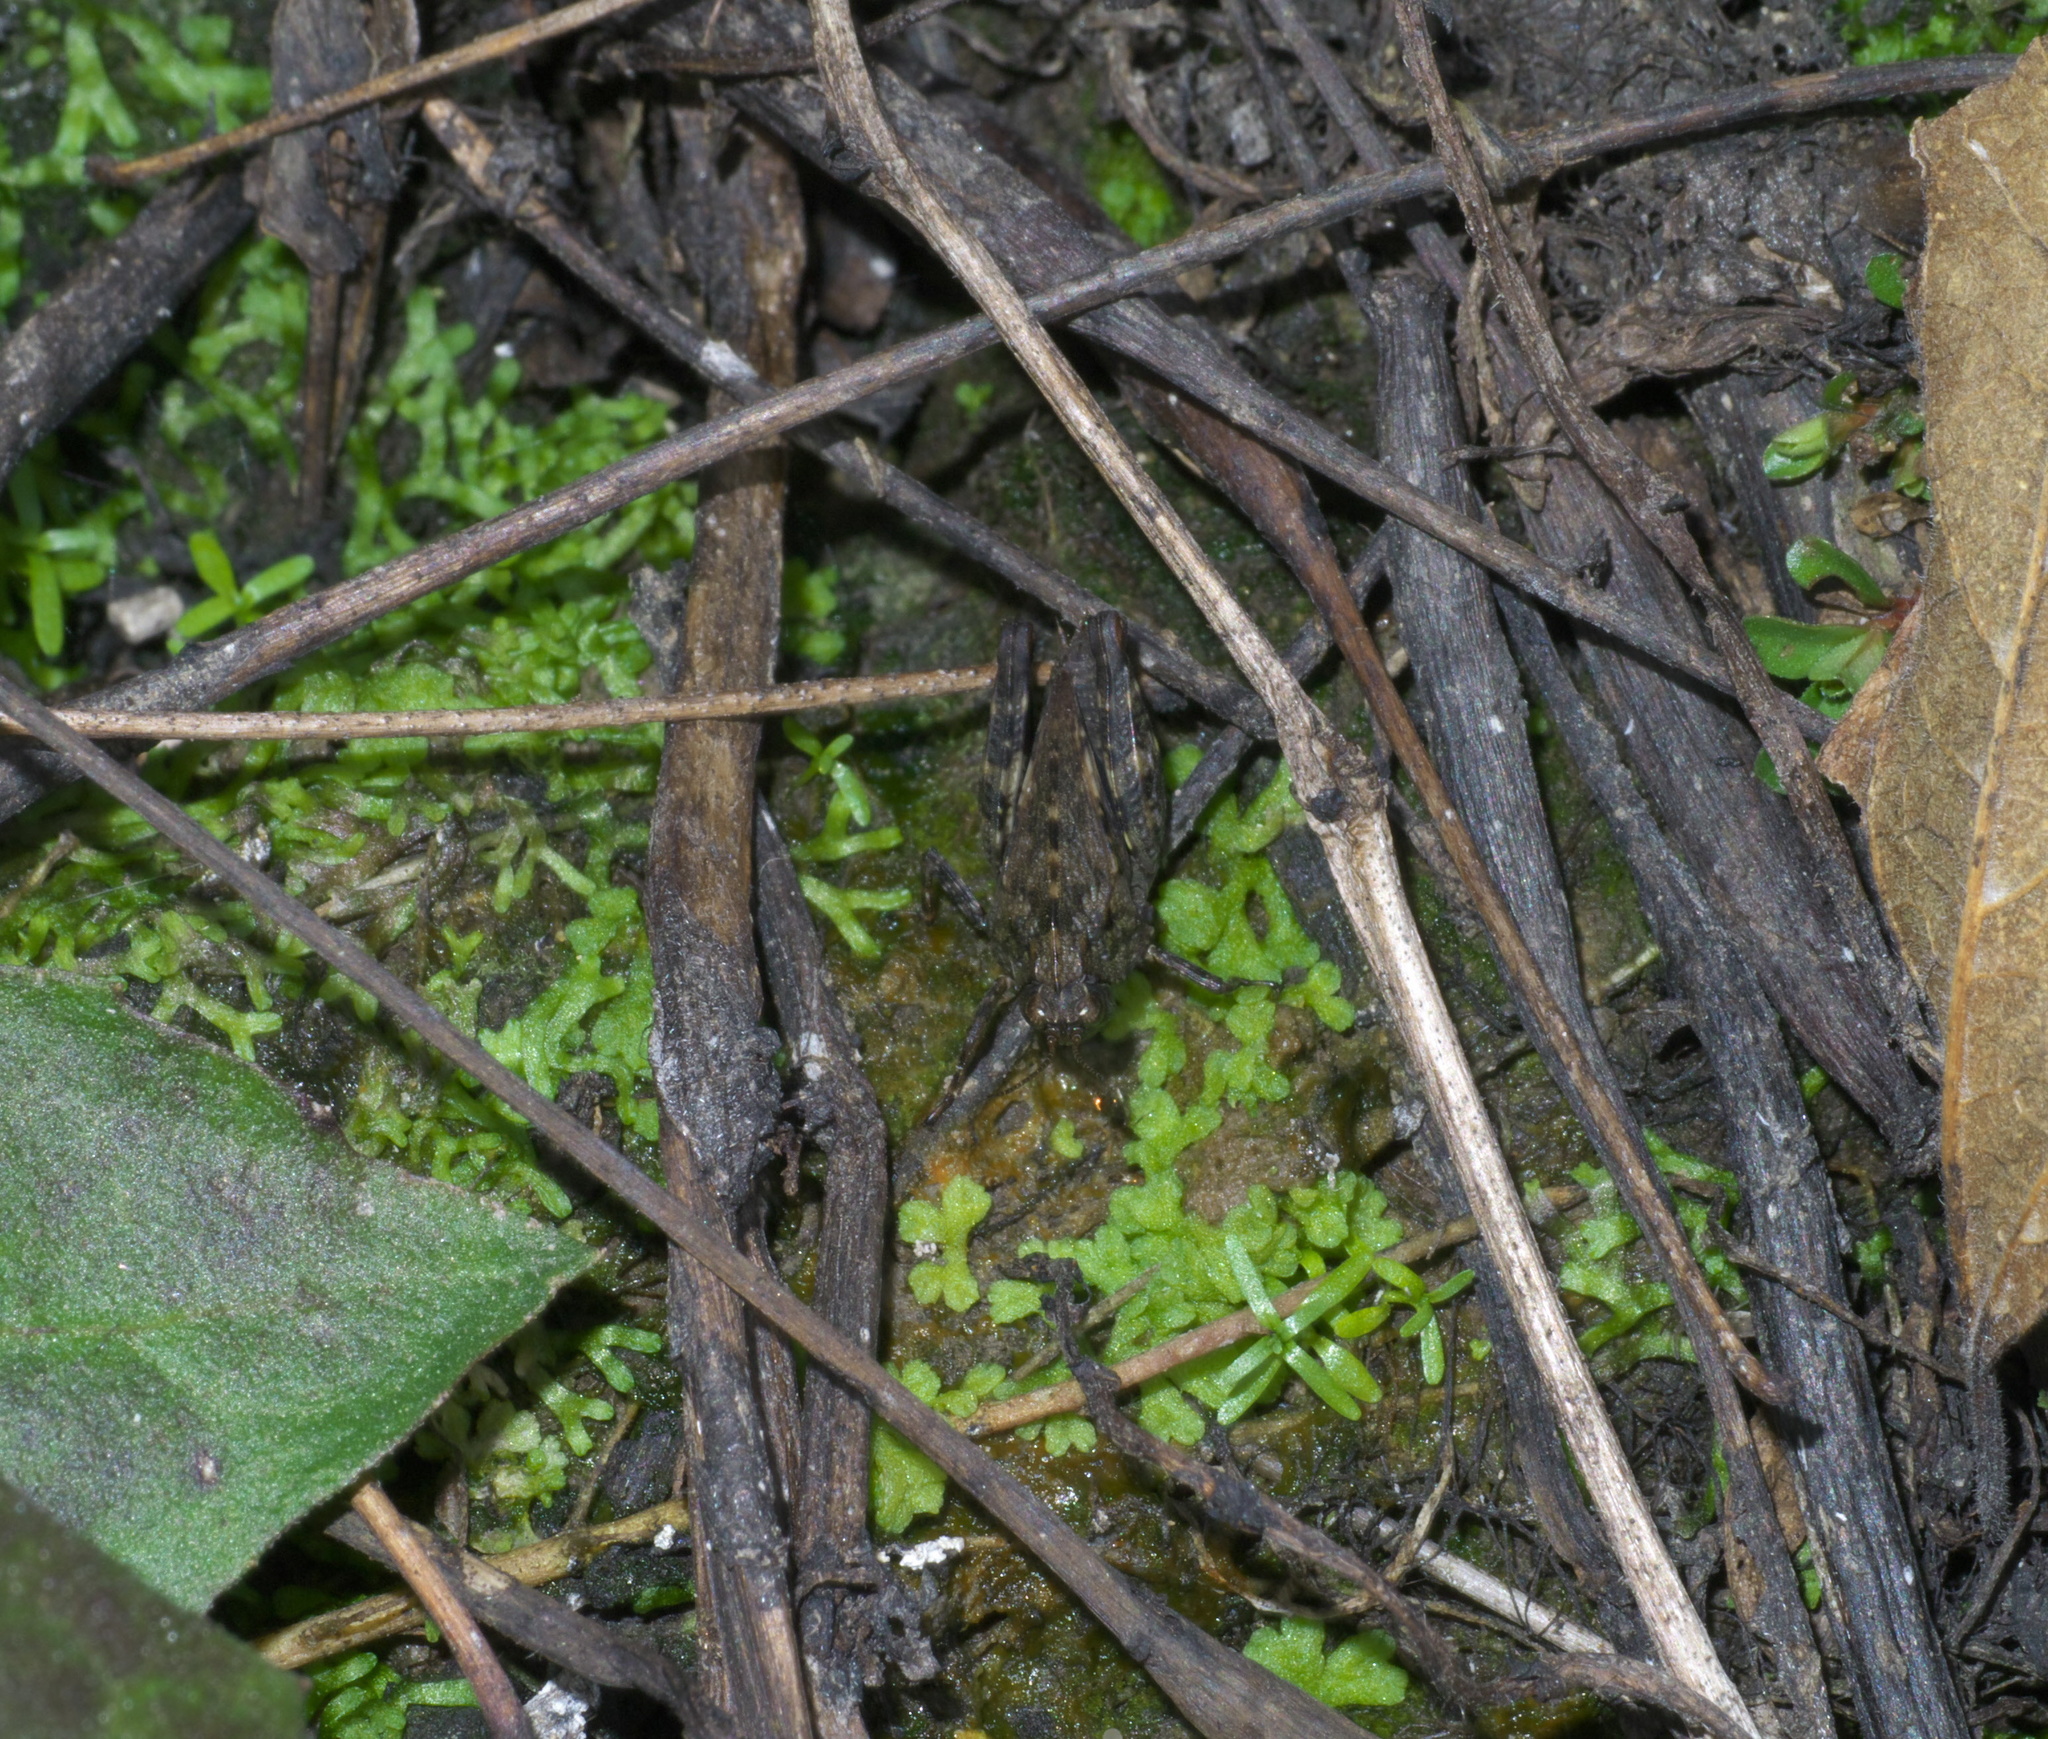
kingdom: Animalia
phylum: Arthropoda
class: Insecta
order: Orthoptera
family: Tetrigidae
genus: Tettigidea
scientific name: Tettigidea armata
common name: Spined grouse locust
